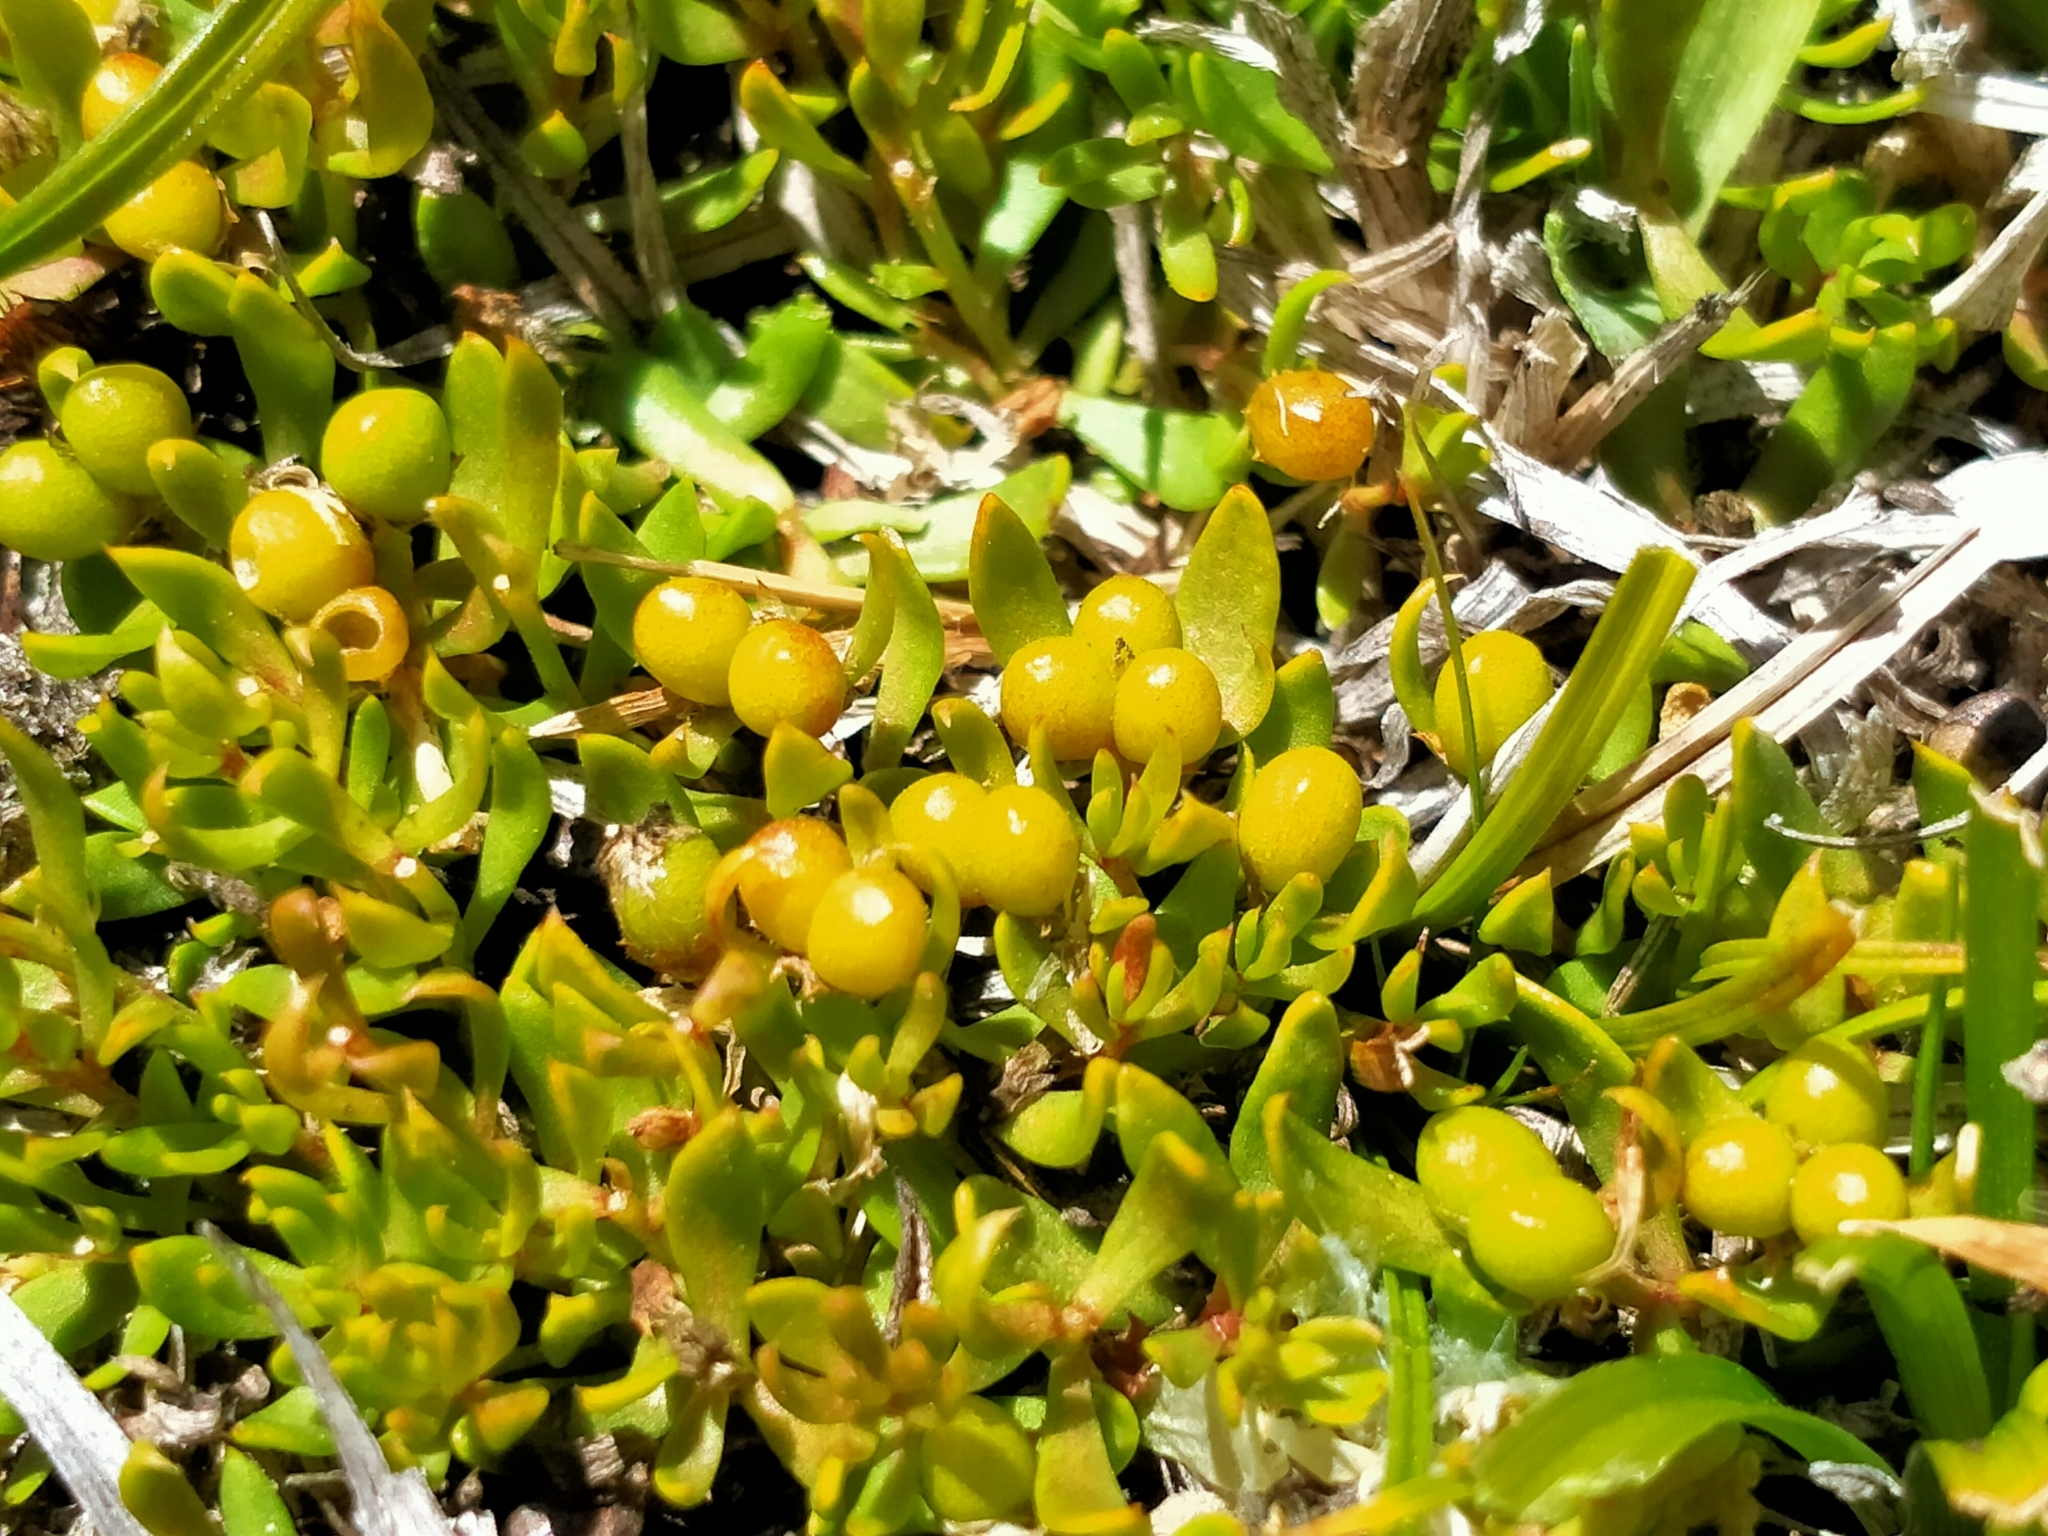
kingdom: Plantae
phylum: Tracheophyta
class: Magnoliopsida
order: Celastrales
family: Celastraceae
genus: Stackhousia
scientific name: Stackhousia minima
